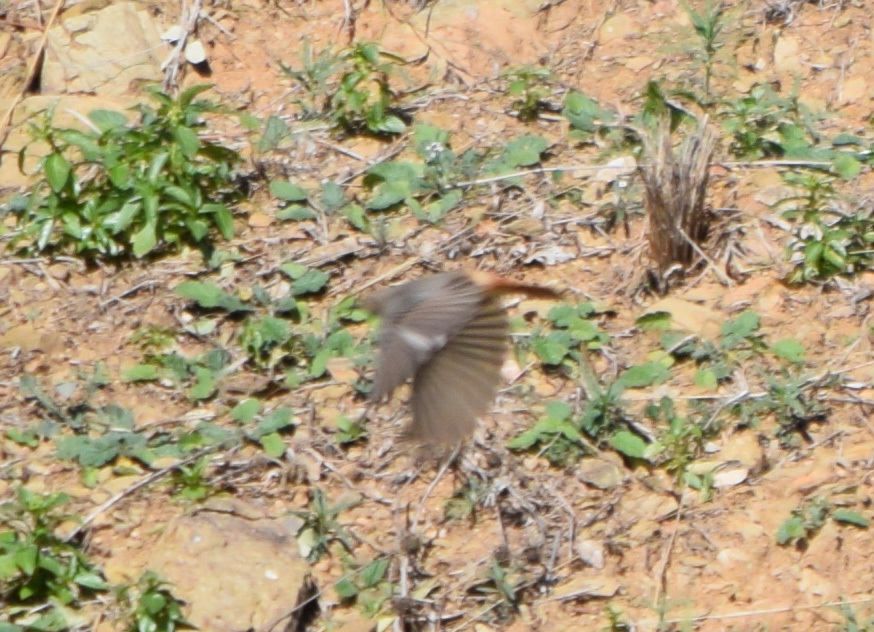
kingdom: Animalia
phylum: Chordata
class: Aves
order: Passeriformes
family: Muscicapidae
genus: Phoenicurus
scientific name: Phoenicurus ochruros
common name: Black redstart
